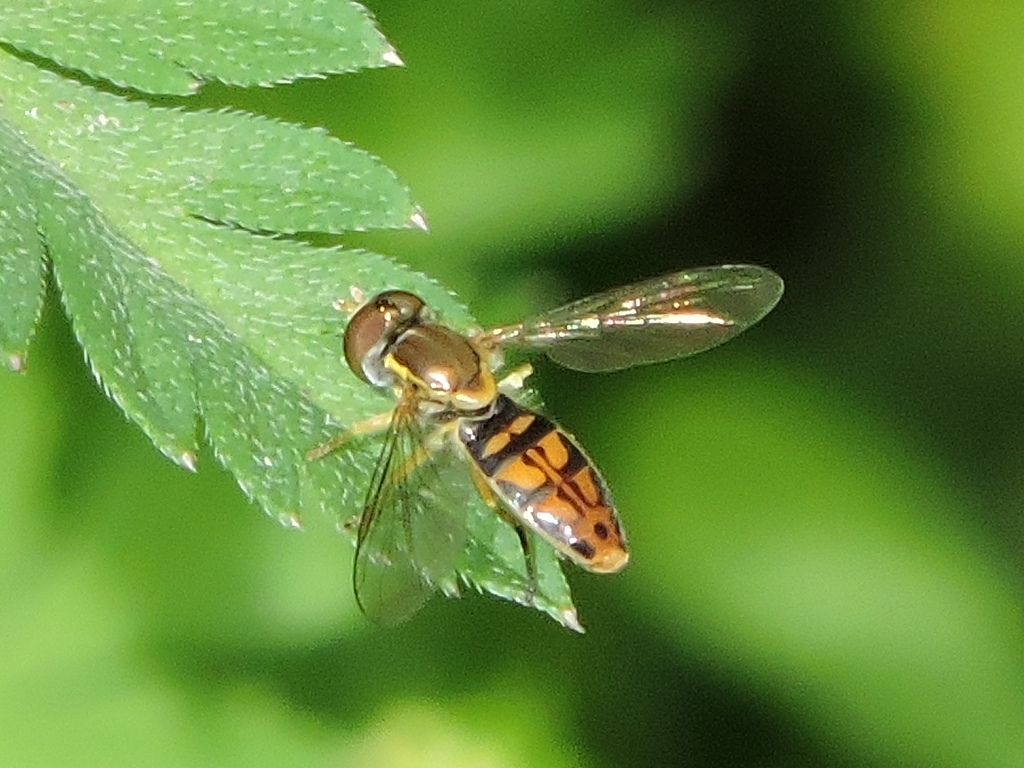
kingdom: Animalia
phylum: Arthropoda
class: Insecta
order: Diptera
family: Syrphidae
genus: Toxomerus
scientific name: Toxomerus marginatus
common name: Syrphid fly
